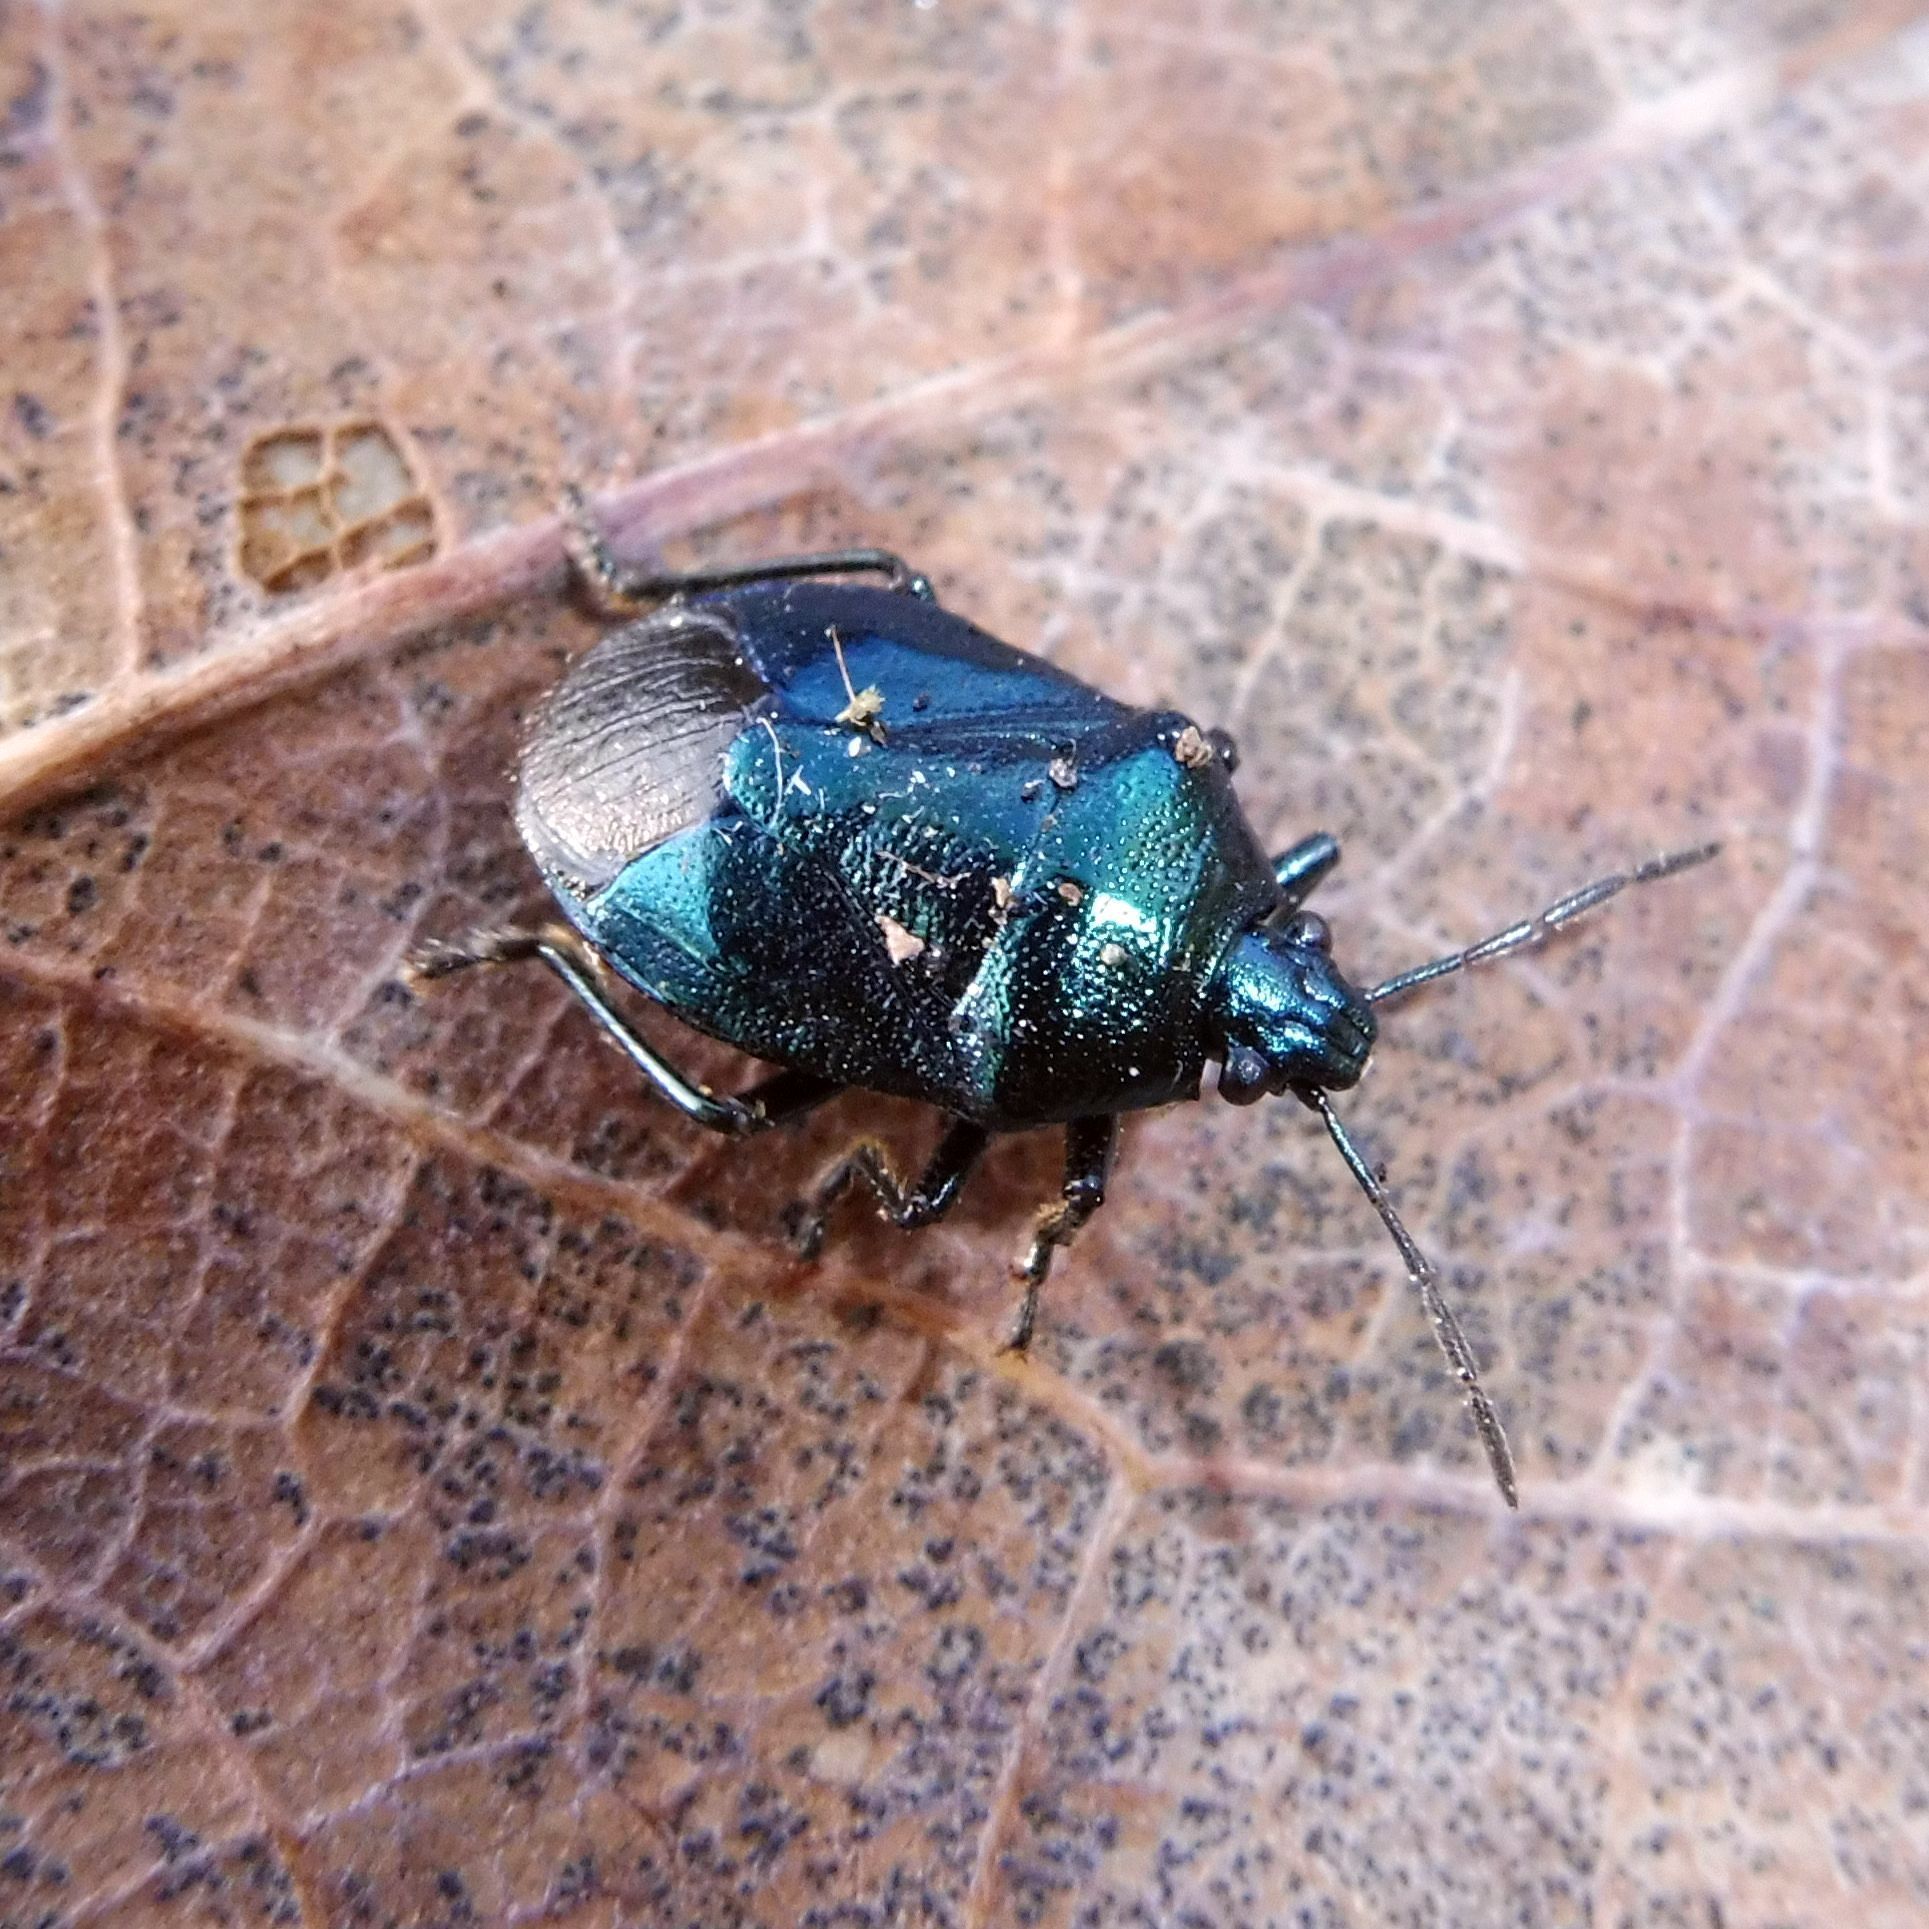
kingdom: Animalia
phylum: Arthropoda
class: Insecta
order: Hemiptera
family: Pentatomidae
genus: Zicrona
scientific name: Zicrona caerulea
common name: Blue shieldbug
